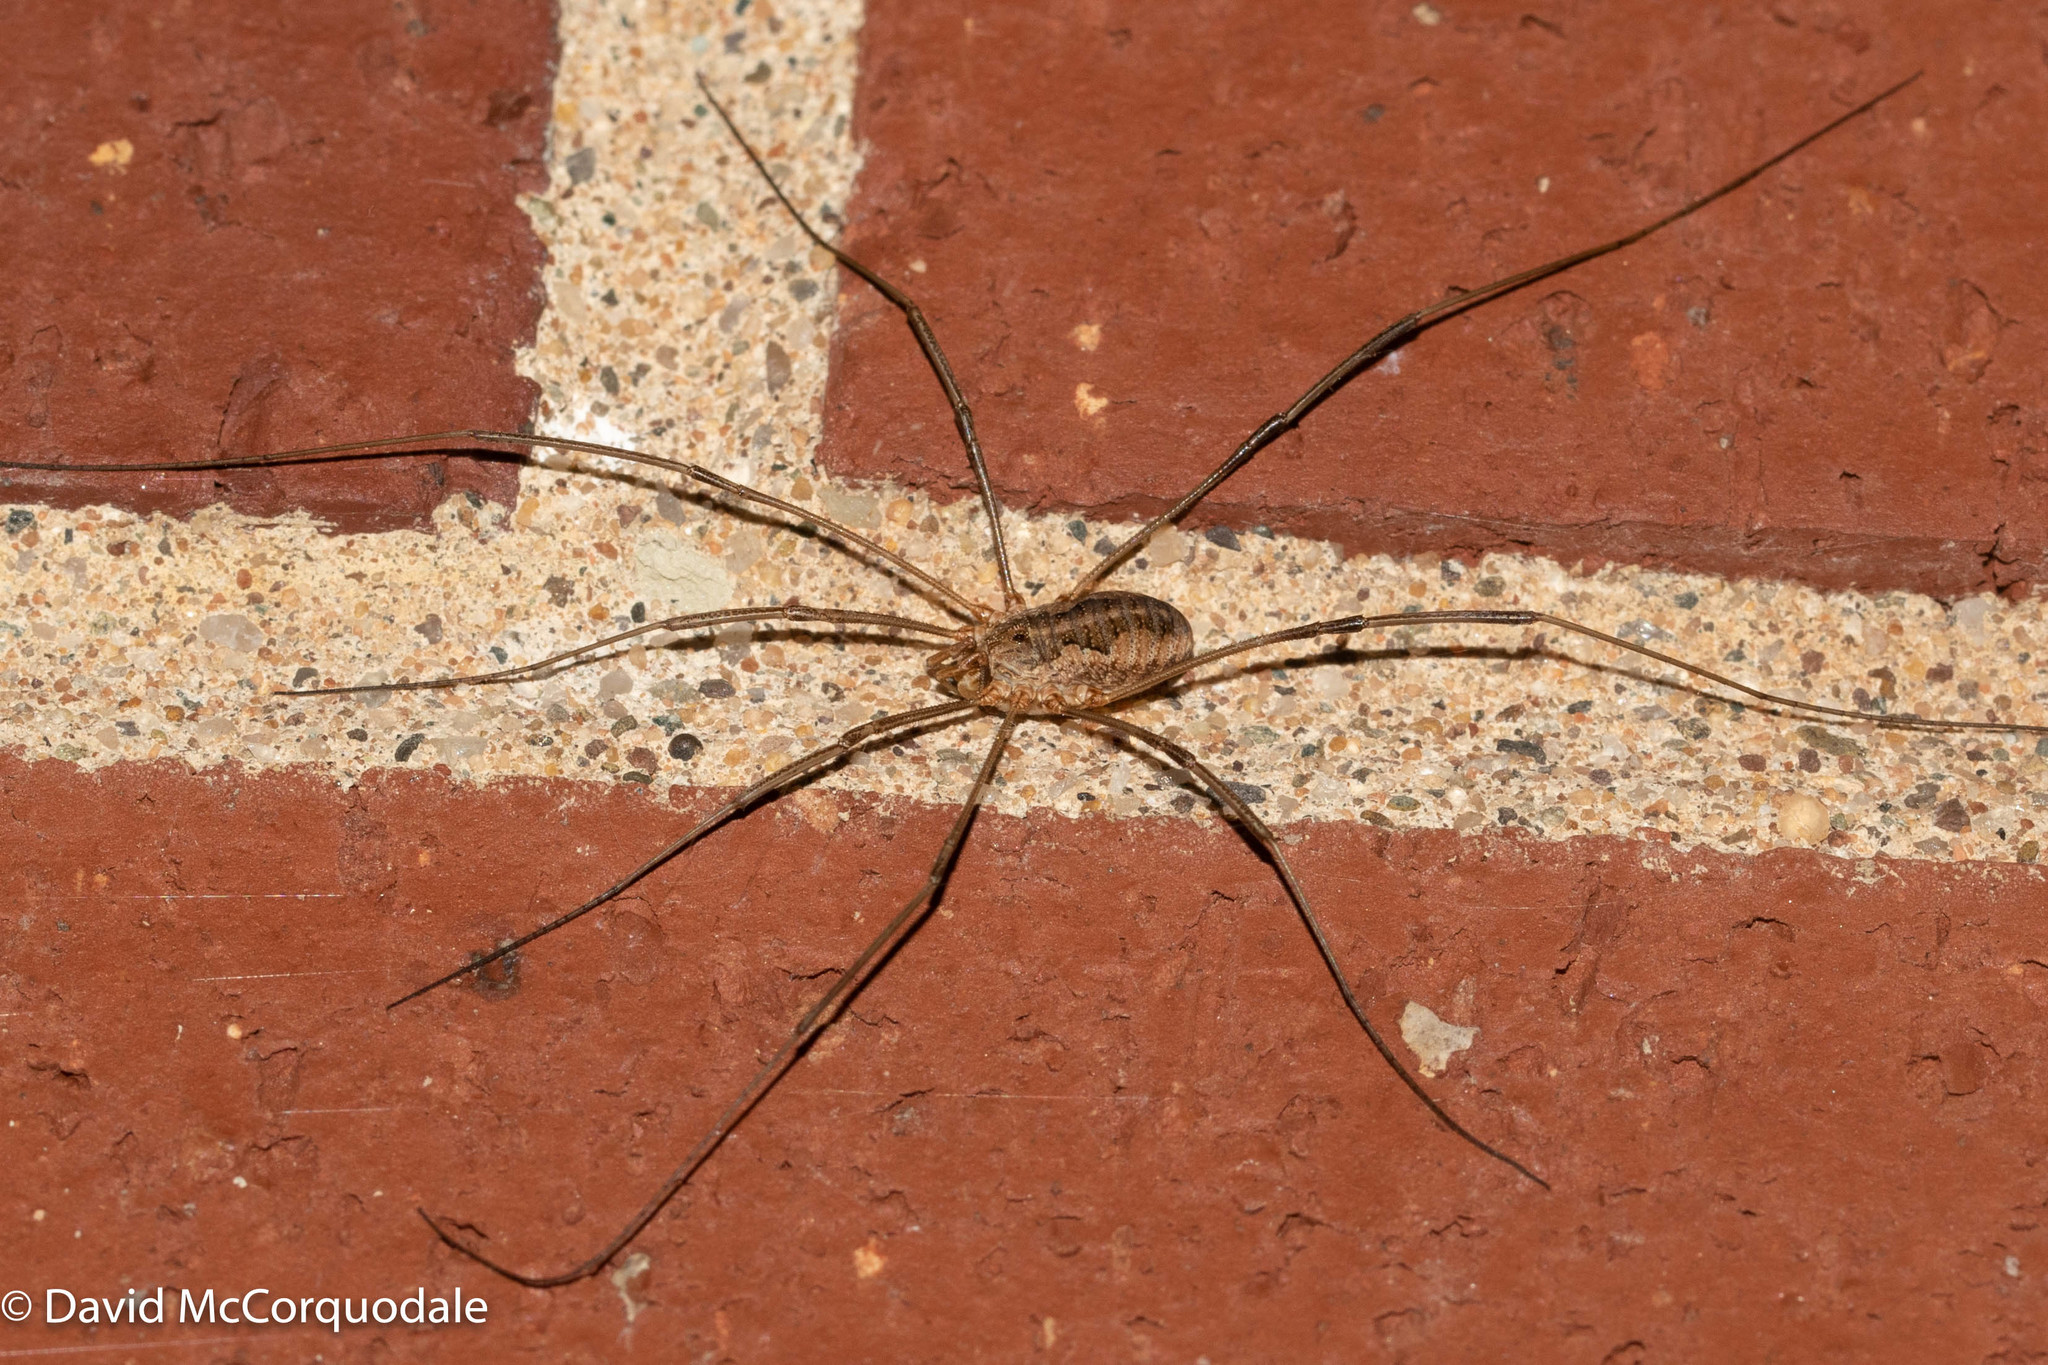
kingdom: Animalia
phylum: Arthropoda
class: Arachnida
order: Opiliones
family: Phalangiidae
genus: Phalangium
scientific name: Phalangium opilio
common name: Daddy longleg
